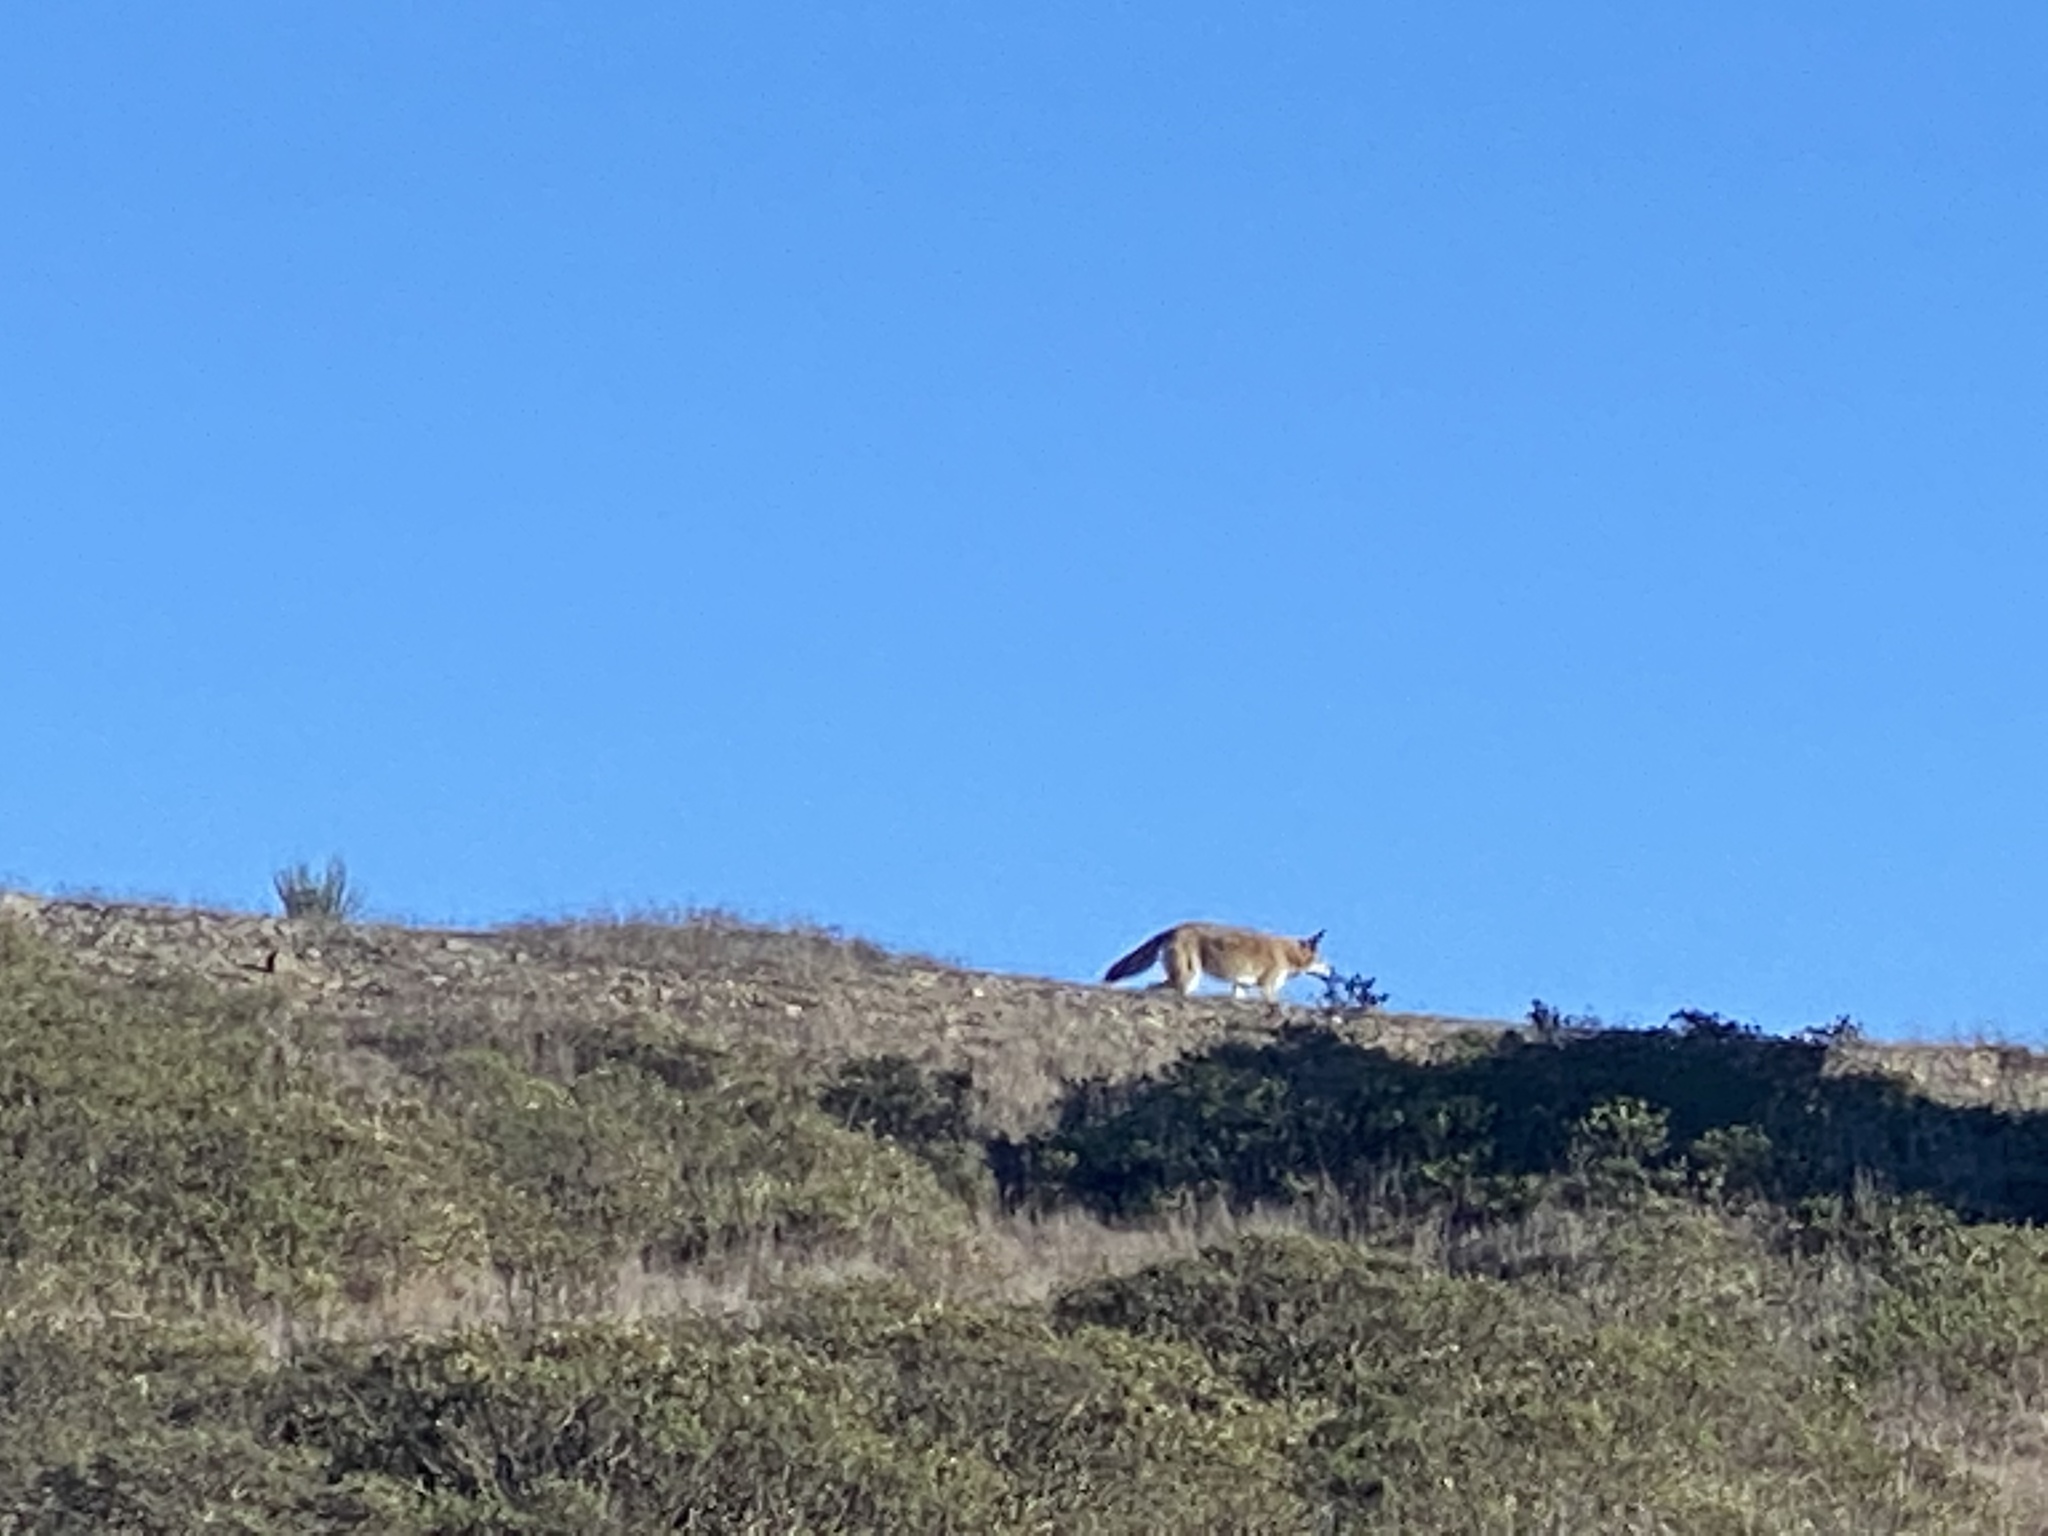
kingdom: Animalia
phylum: Chordata
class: Mammalia
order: Carnivora
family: Canidae
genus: Canis
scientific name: Canis latrans
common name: Coyote
